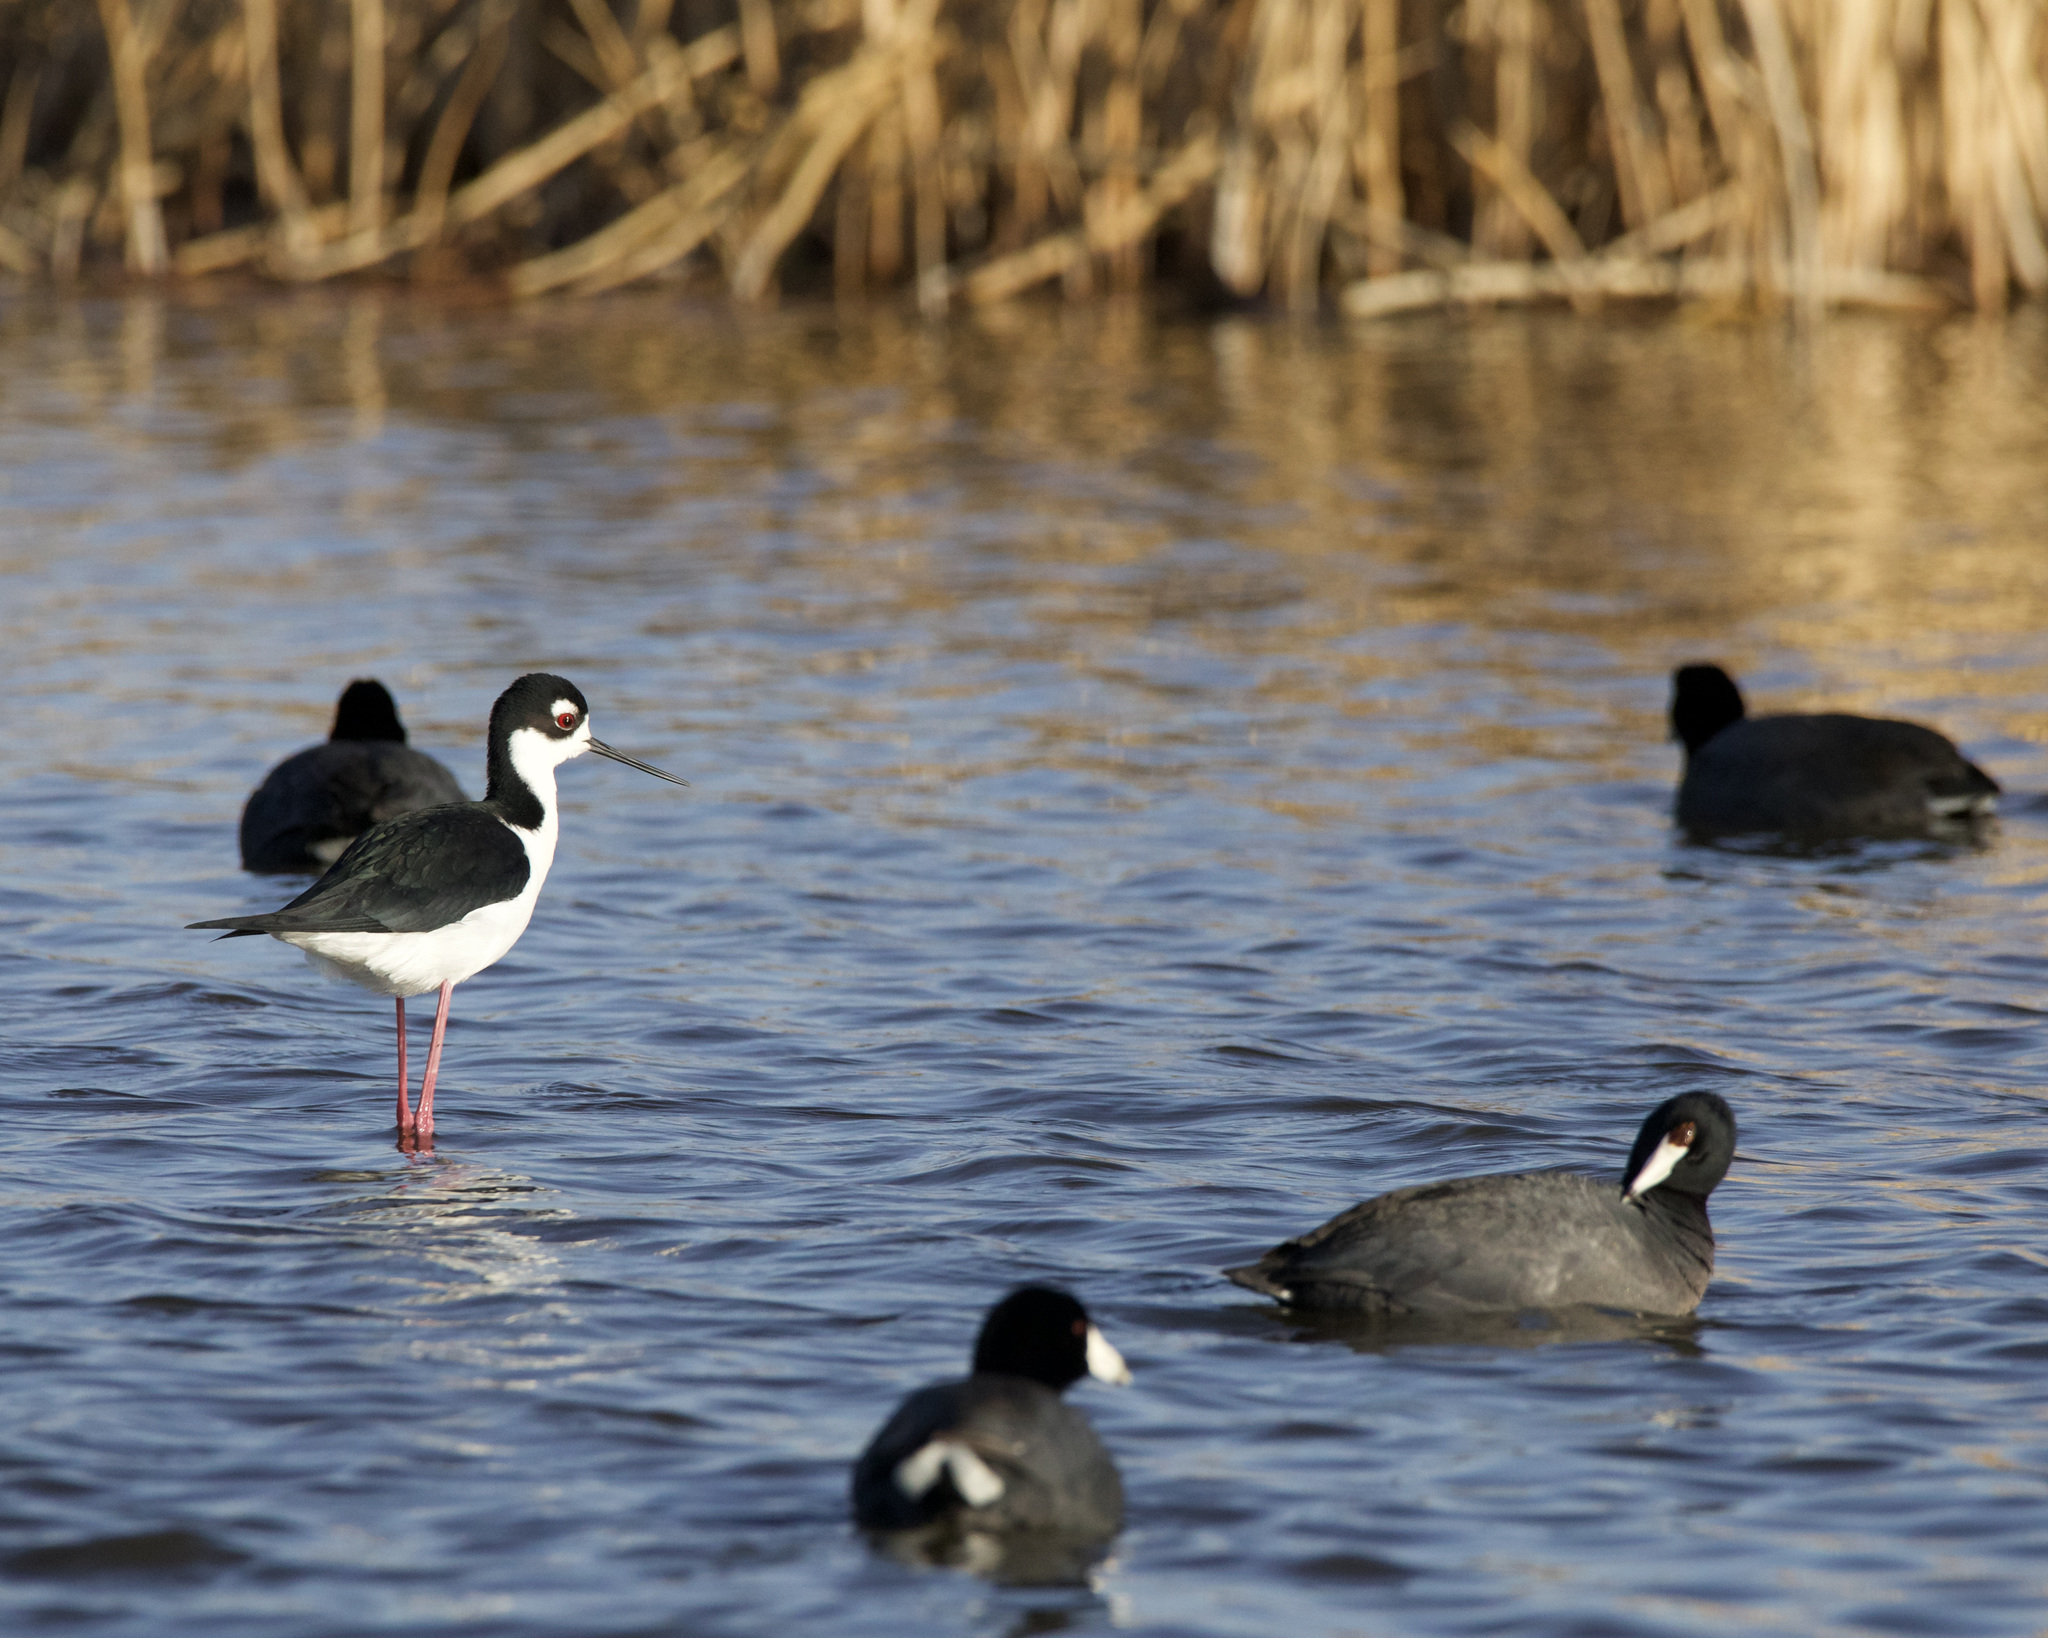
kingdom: Animalia
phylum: Chordata
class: Aves
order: Charadriiformes
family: Recurvirostridae
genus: Himantopus
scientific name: Himantopus mexicanus
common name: Black-necked stilt
